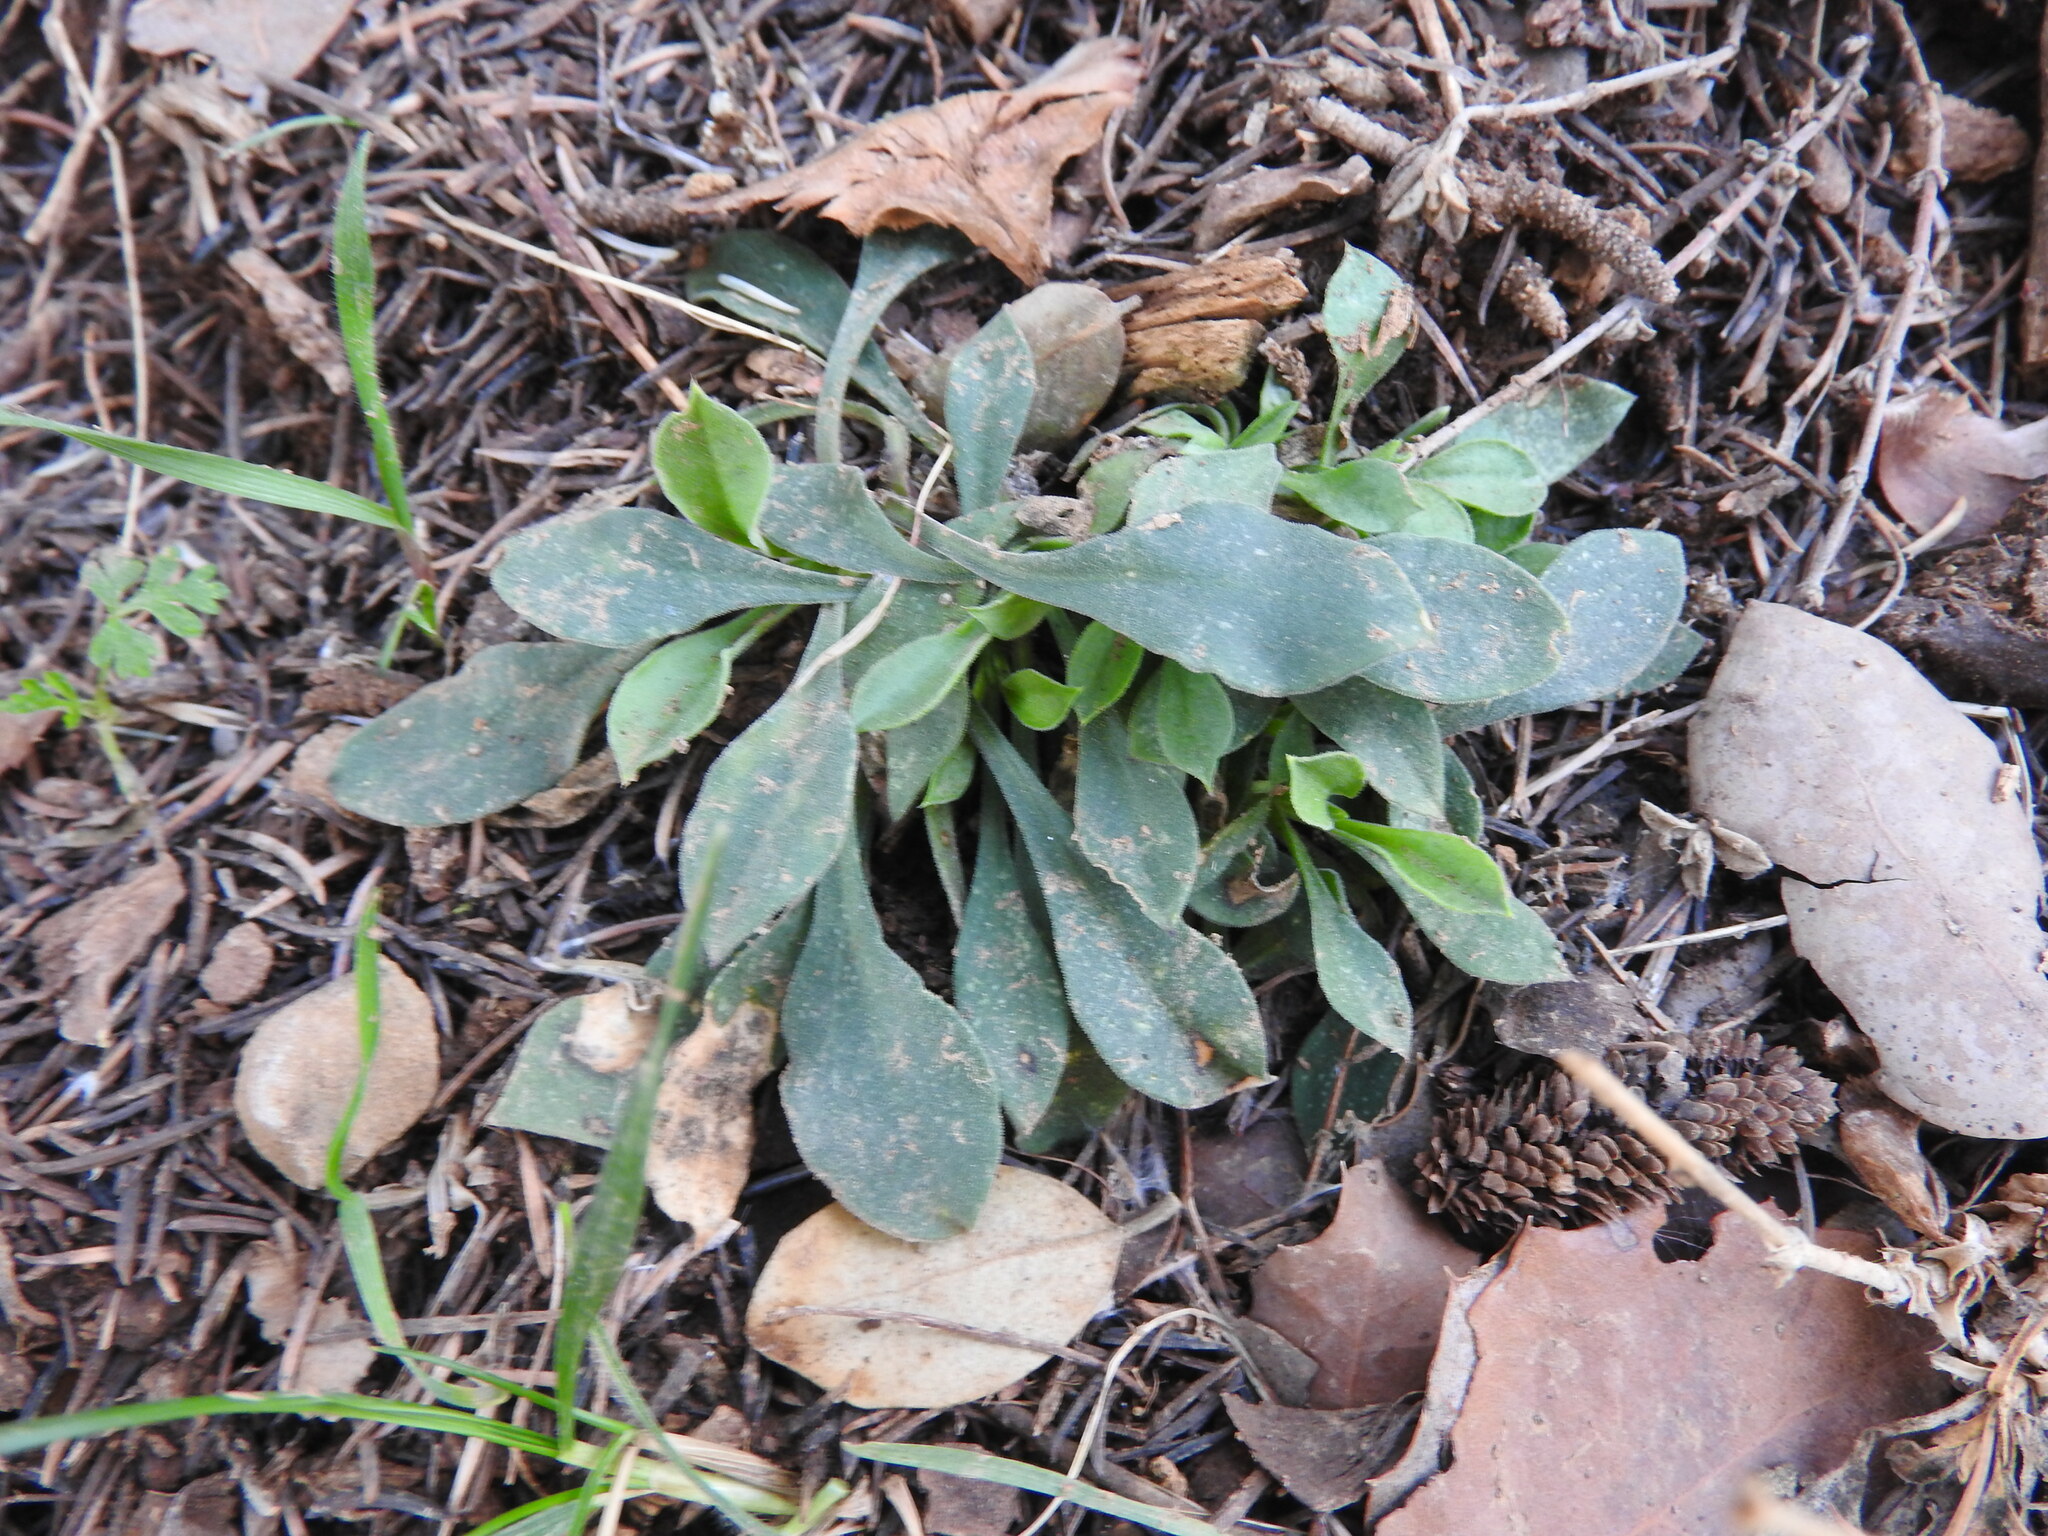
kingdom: Plantae
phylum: Tracheophyta
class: Magnoliopsida
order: Caryophyllales
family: Caryophyllaceae
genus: Silene
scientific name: Silene patula
